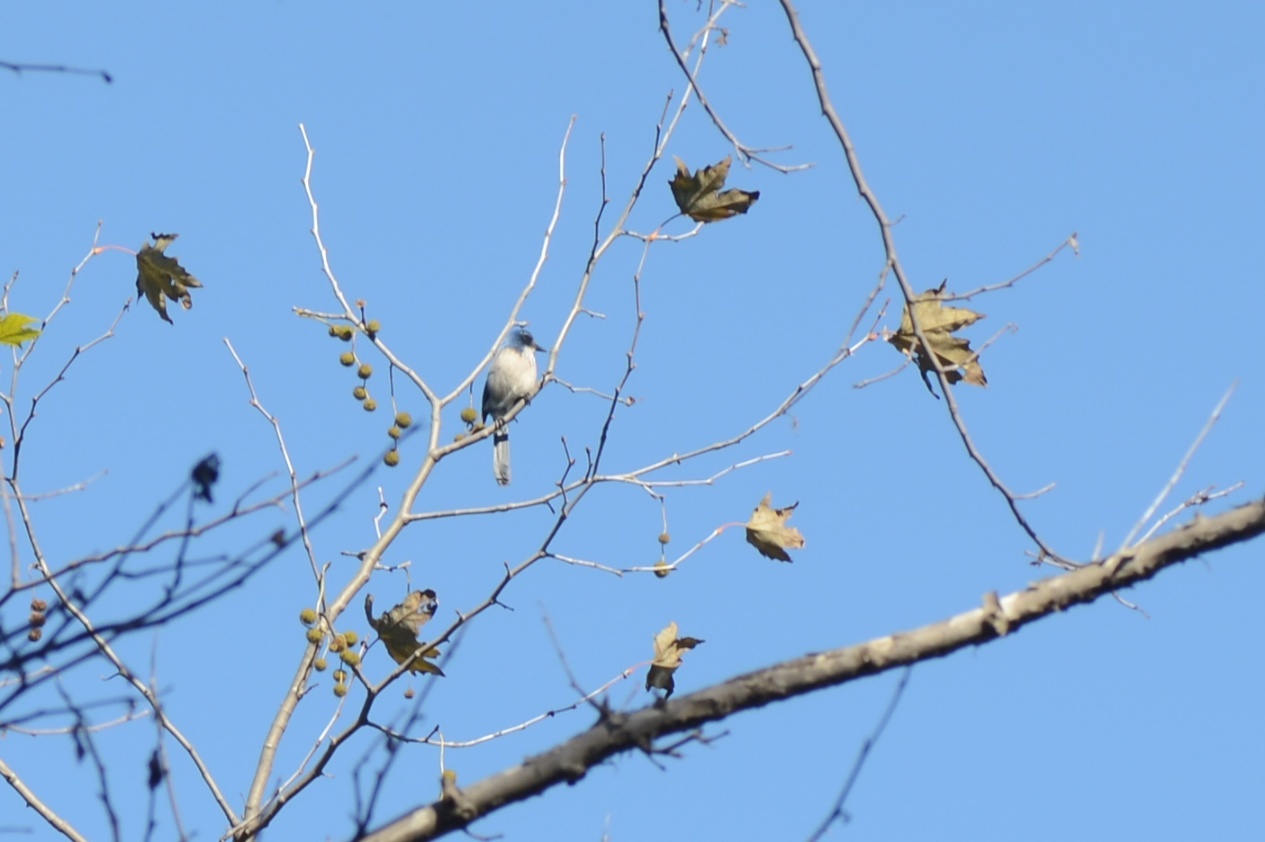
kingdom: Animalia
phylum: Chordata
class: Aves
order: Passeriformes
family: Corvidae
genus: Aphelocoma
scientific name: Aphelocoma californica
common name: California scrub-jay
